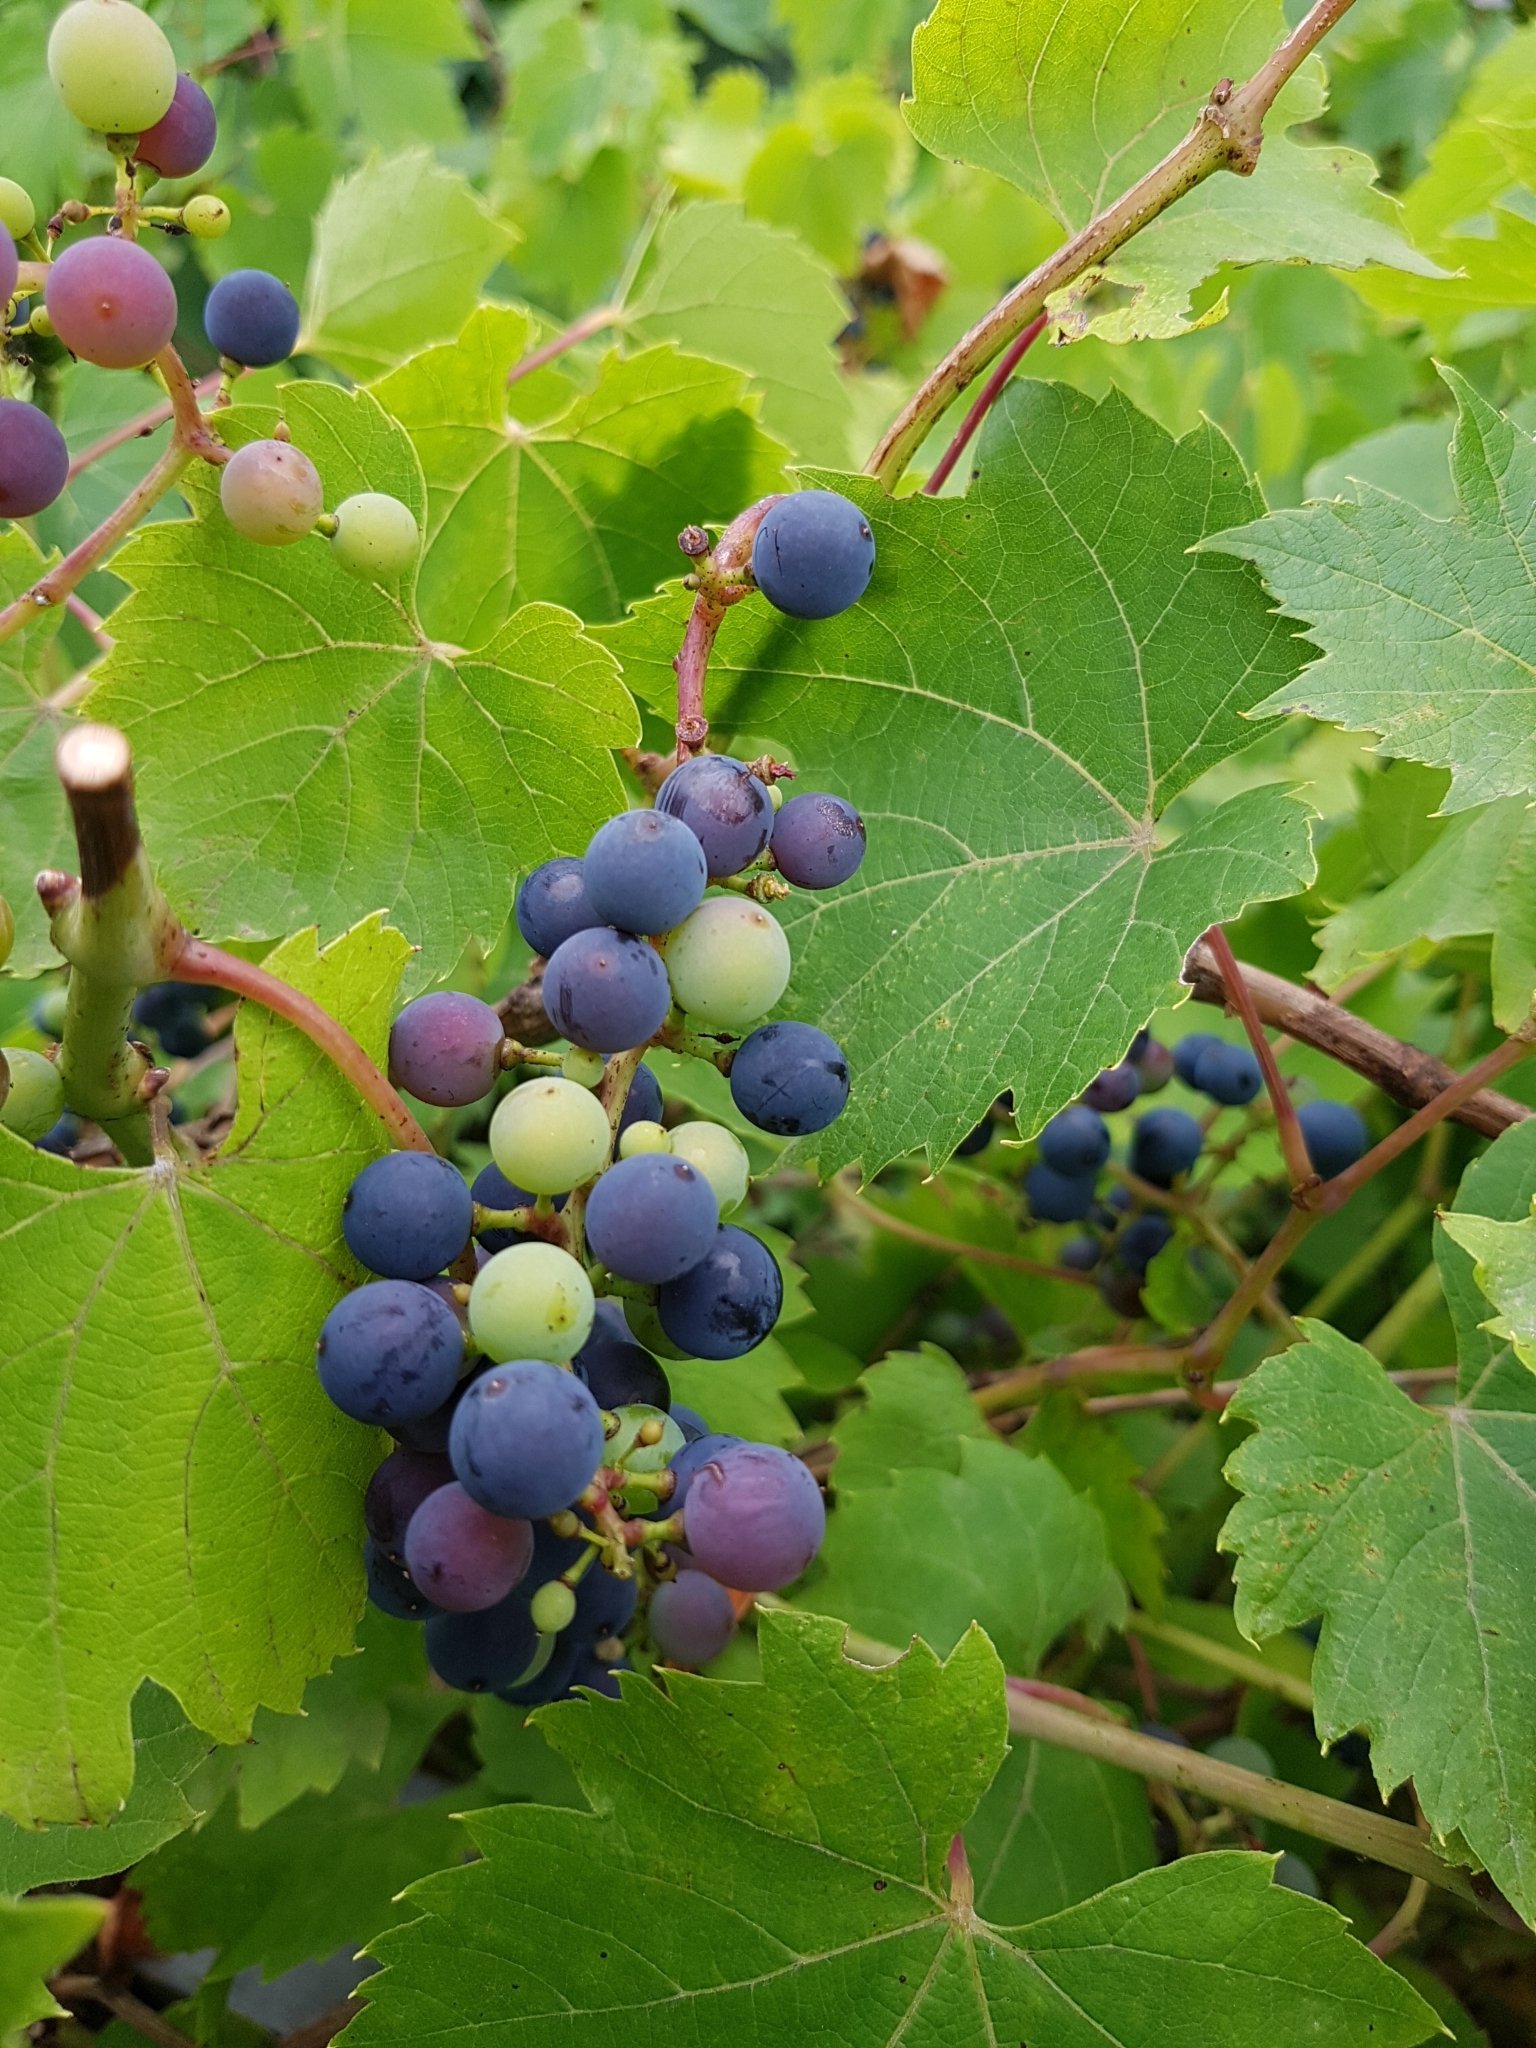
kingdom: Plantae
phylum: Tracheophyta
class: Magnoliopsida
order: Vitales
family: Vitaceae
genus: Vitis
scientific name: Vitis vinifera
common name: Grape-vine
